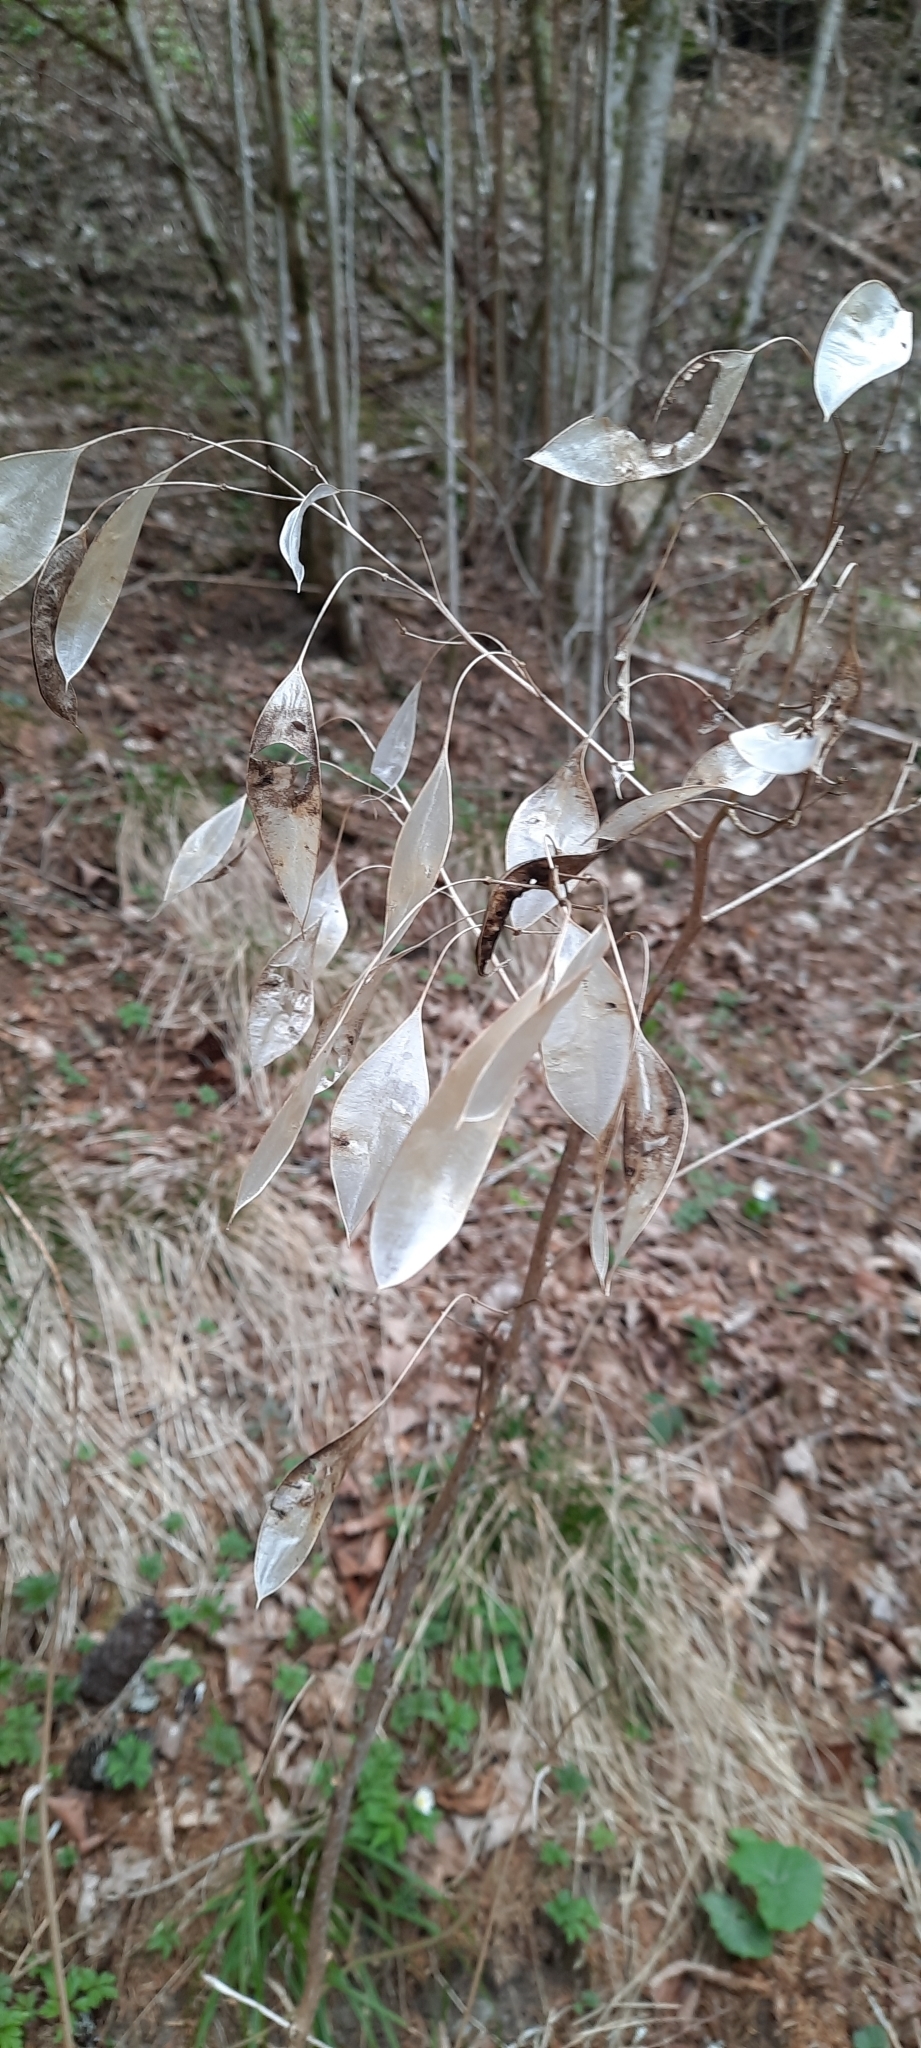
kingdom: Plantae
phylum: Tracheophyta
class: Magnoliopsida
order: Brassicales
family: Brassicaceae
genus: Lunaria
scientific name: Lunaria rediviva
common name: Perennial honesty
